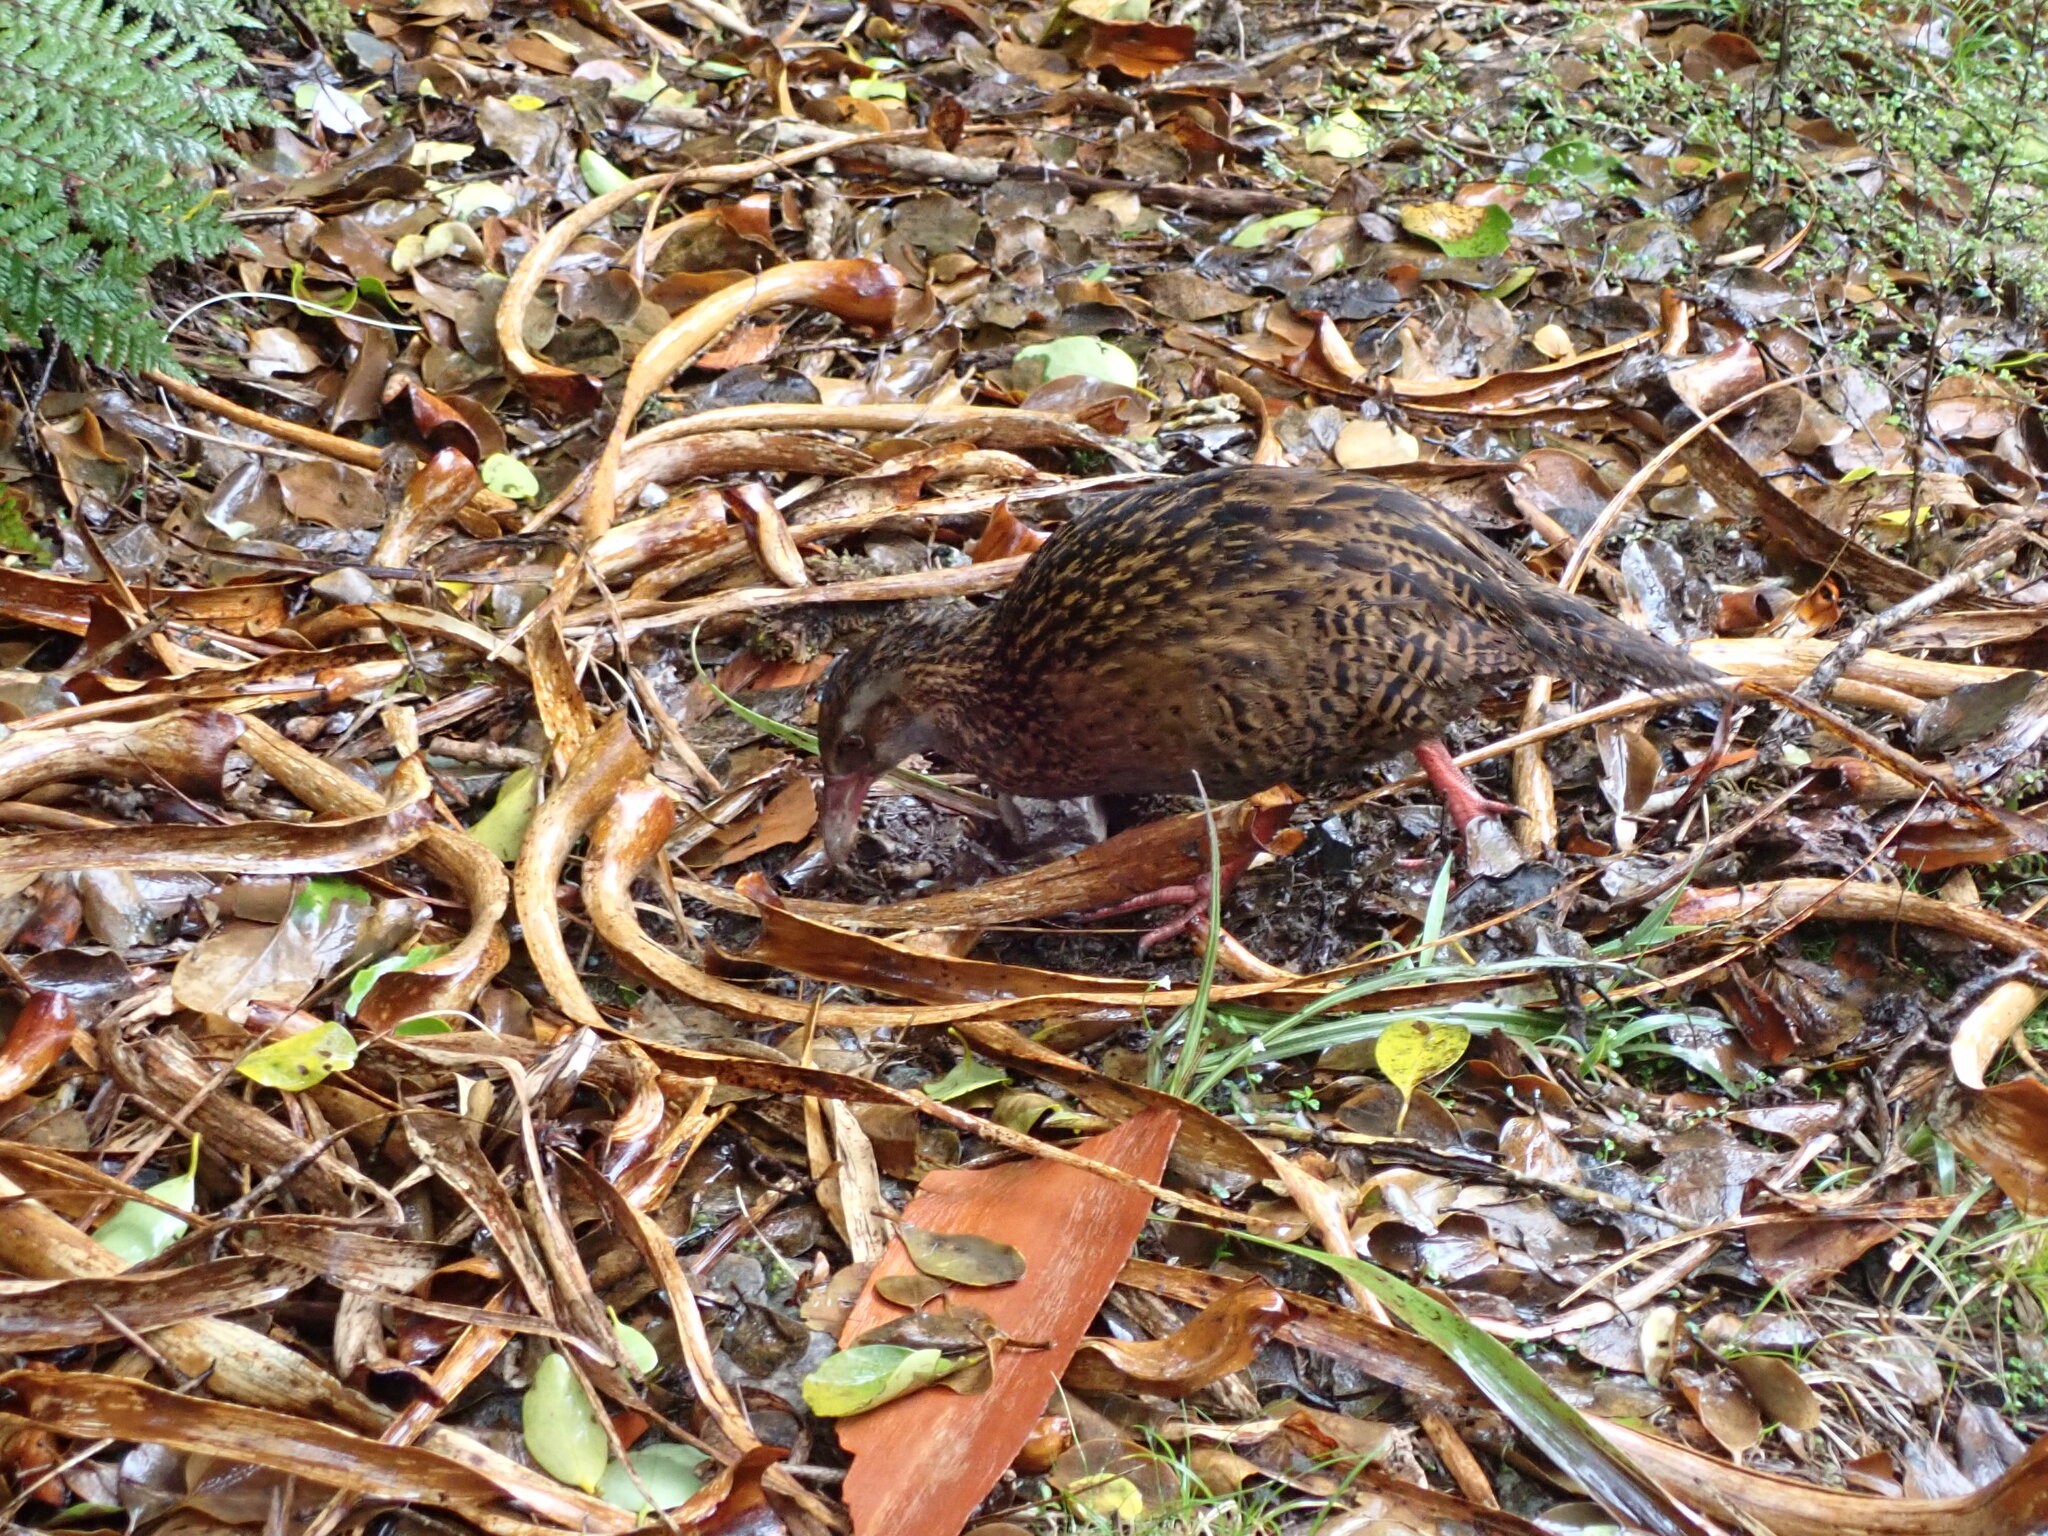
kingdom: Animalia
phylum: Chordata
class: Aves
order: Gruiformes
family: Rallidae
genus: Gallirallus
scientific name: Gallirallus australis
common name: Weka
